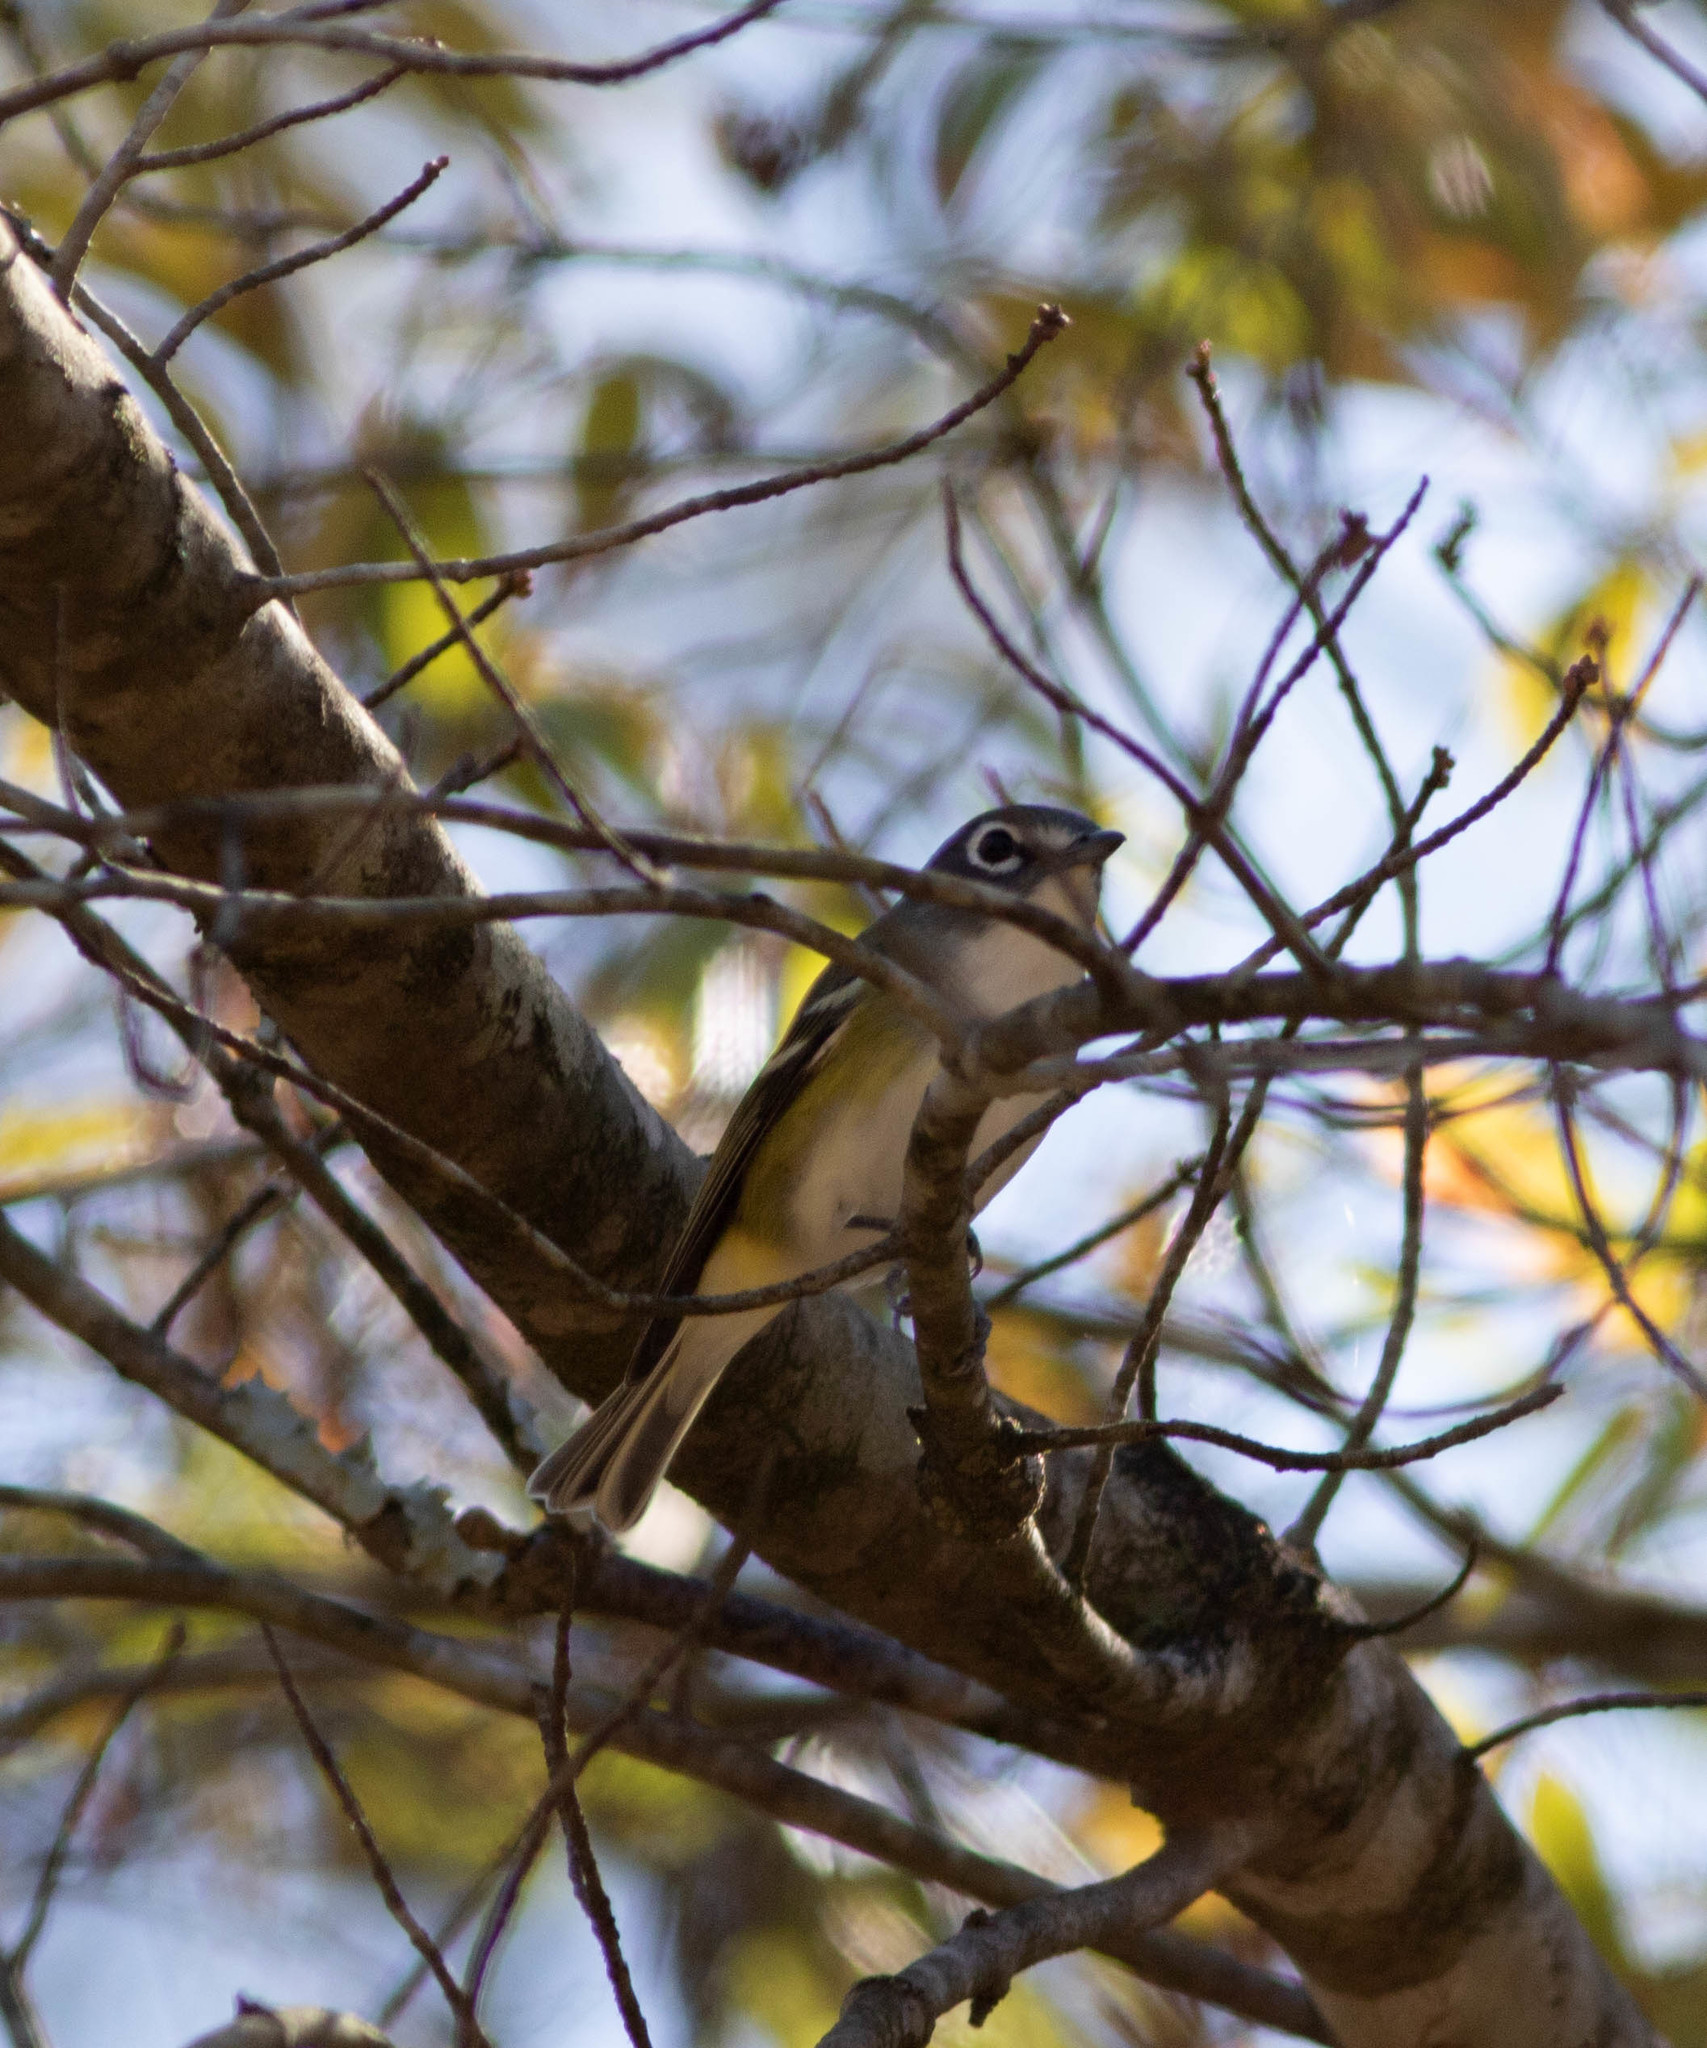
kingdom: Animalia
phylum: Chordata
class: Aves
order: Passeriformes
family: Vireonidae
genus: Vireo
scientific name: Vireo solitarius
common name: Blue-headed vireo
